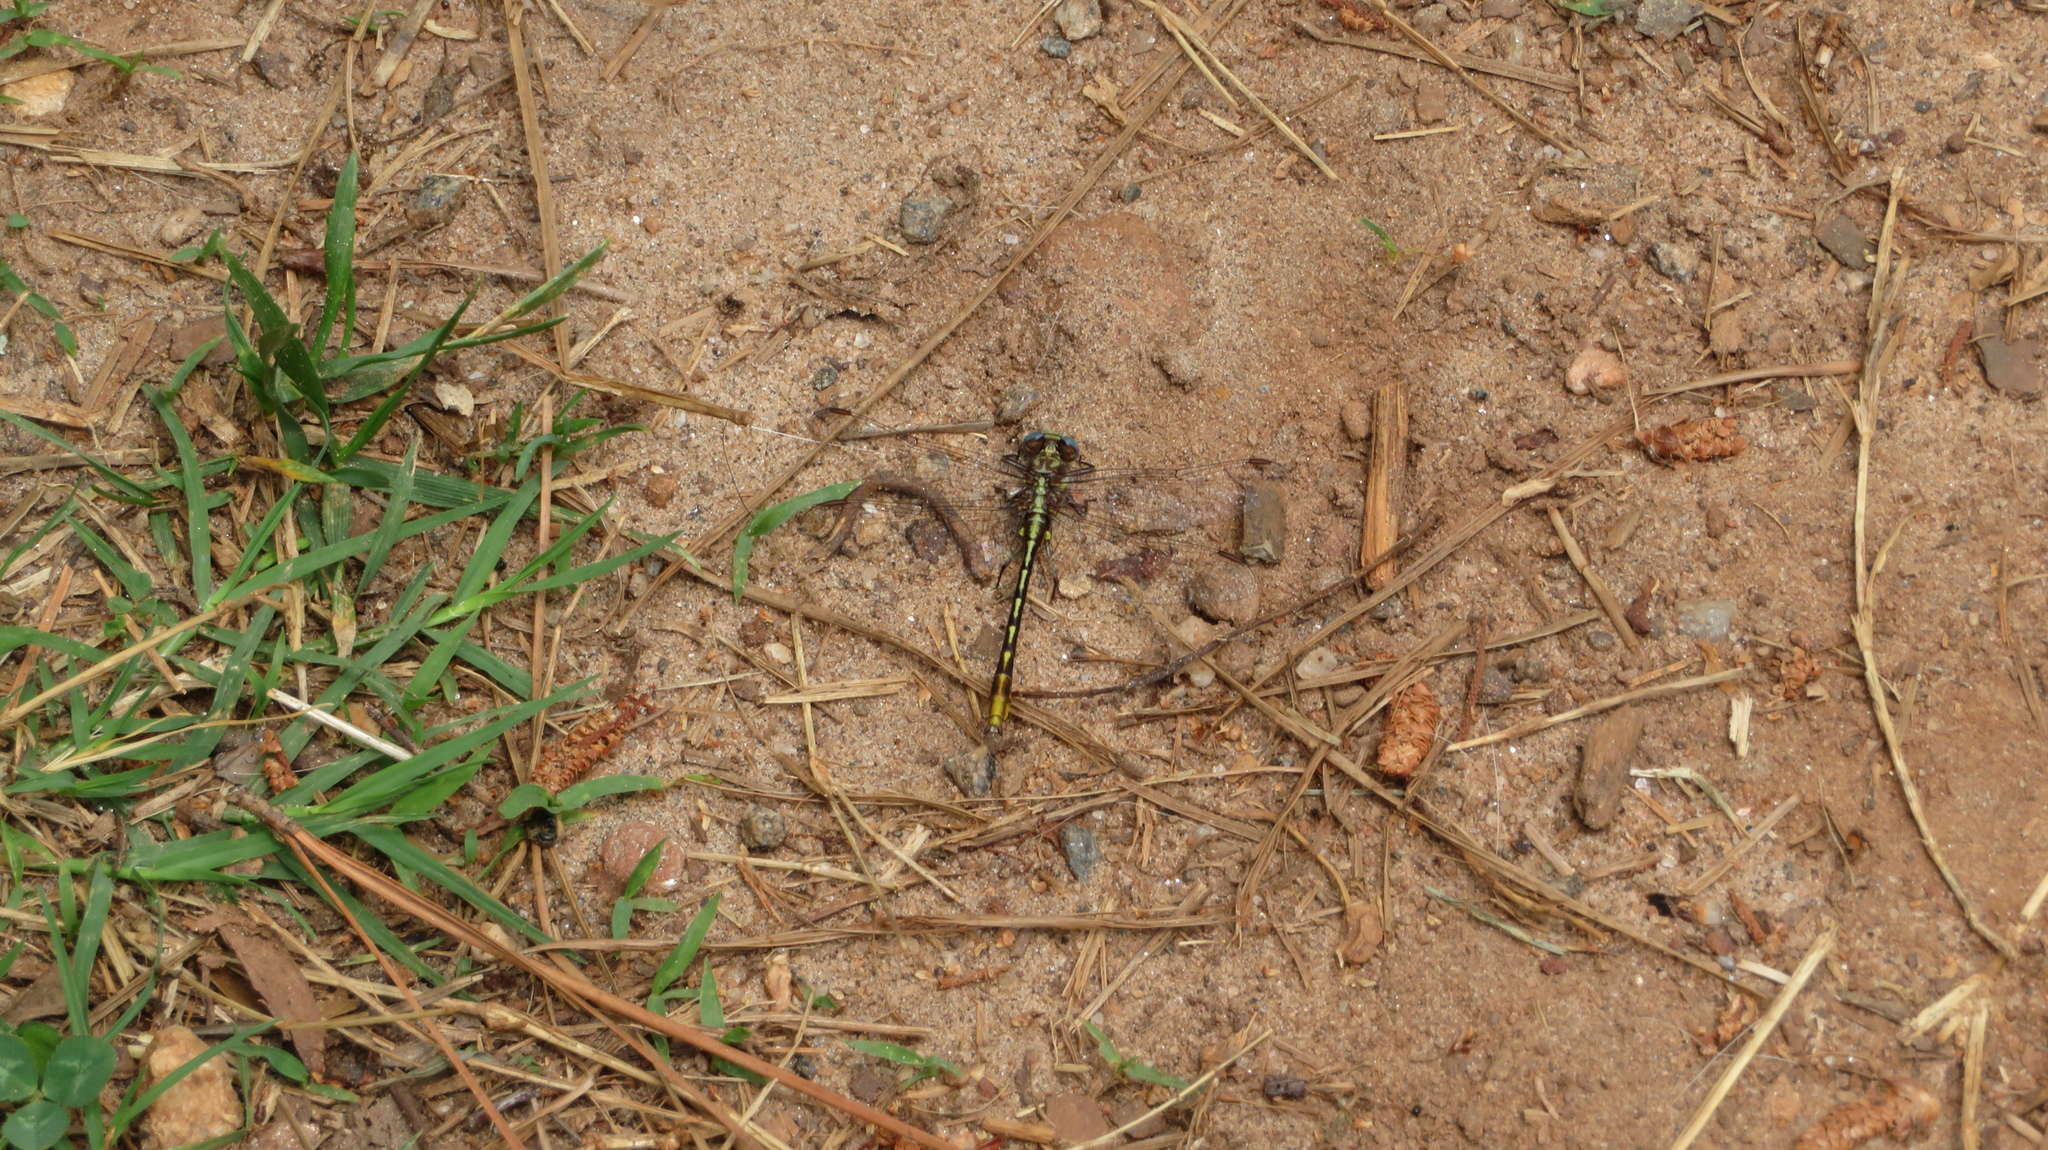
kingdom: Animalia
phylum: Arthropoda
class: Insecta
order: Odonata
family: Gomphidae
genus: Phanogomphus
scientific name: Phanogomphus exilis
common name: Lancet clubtail
